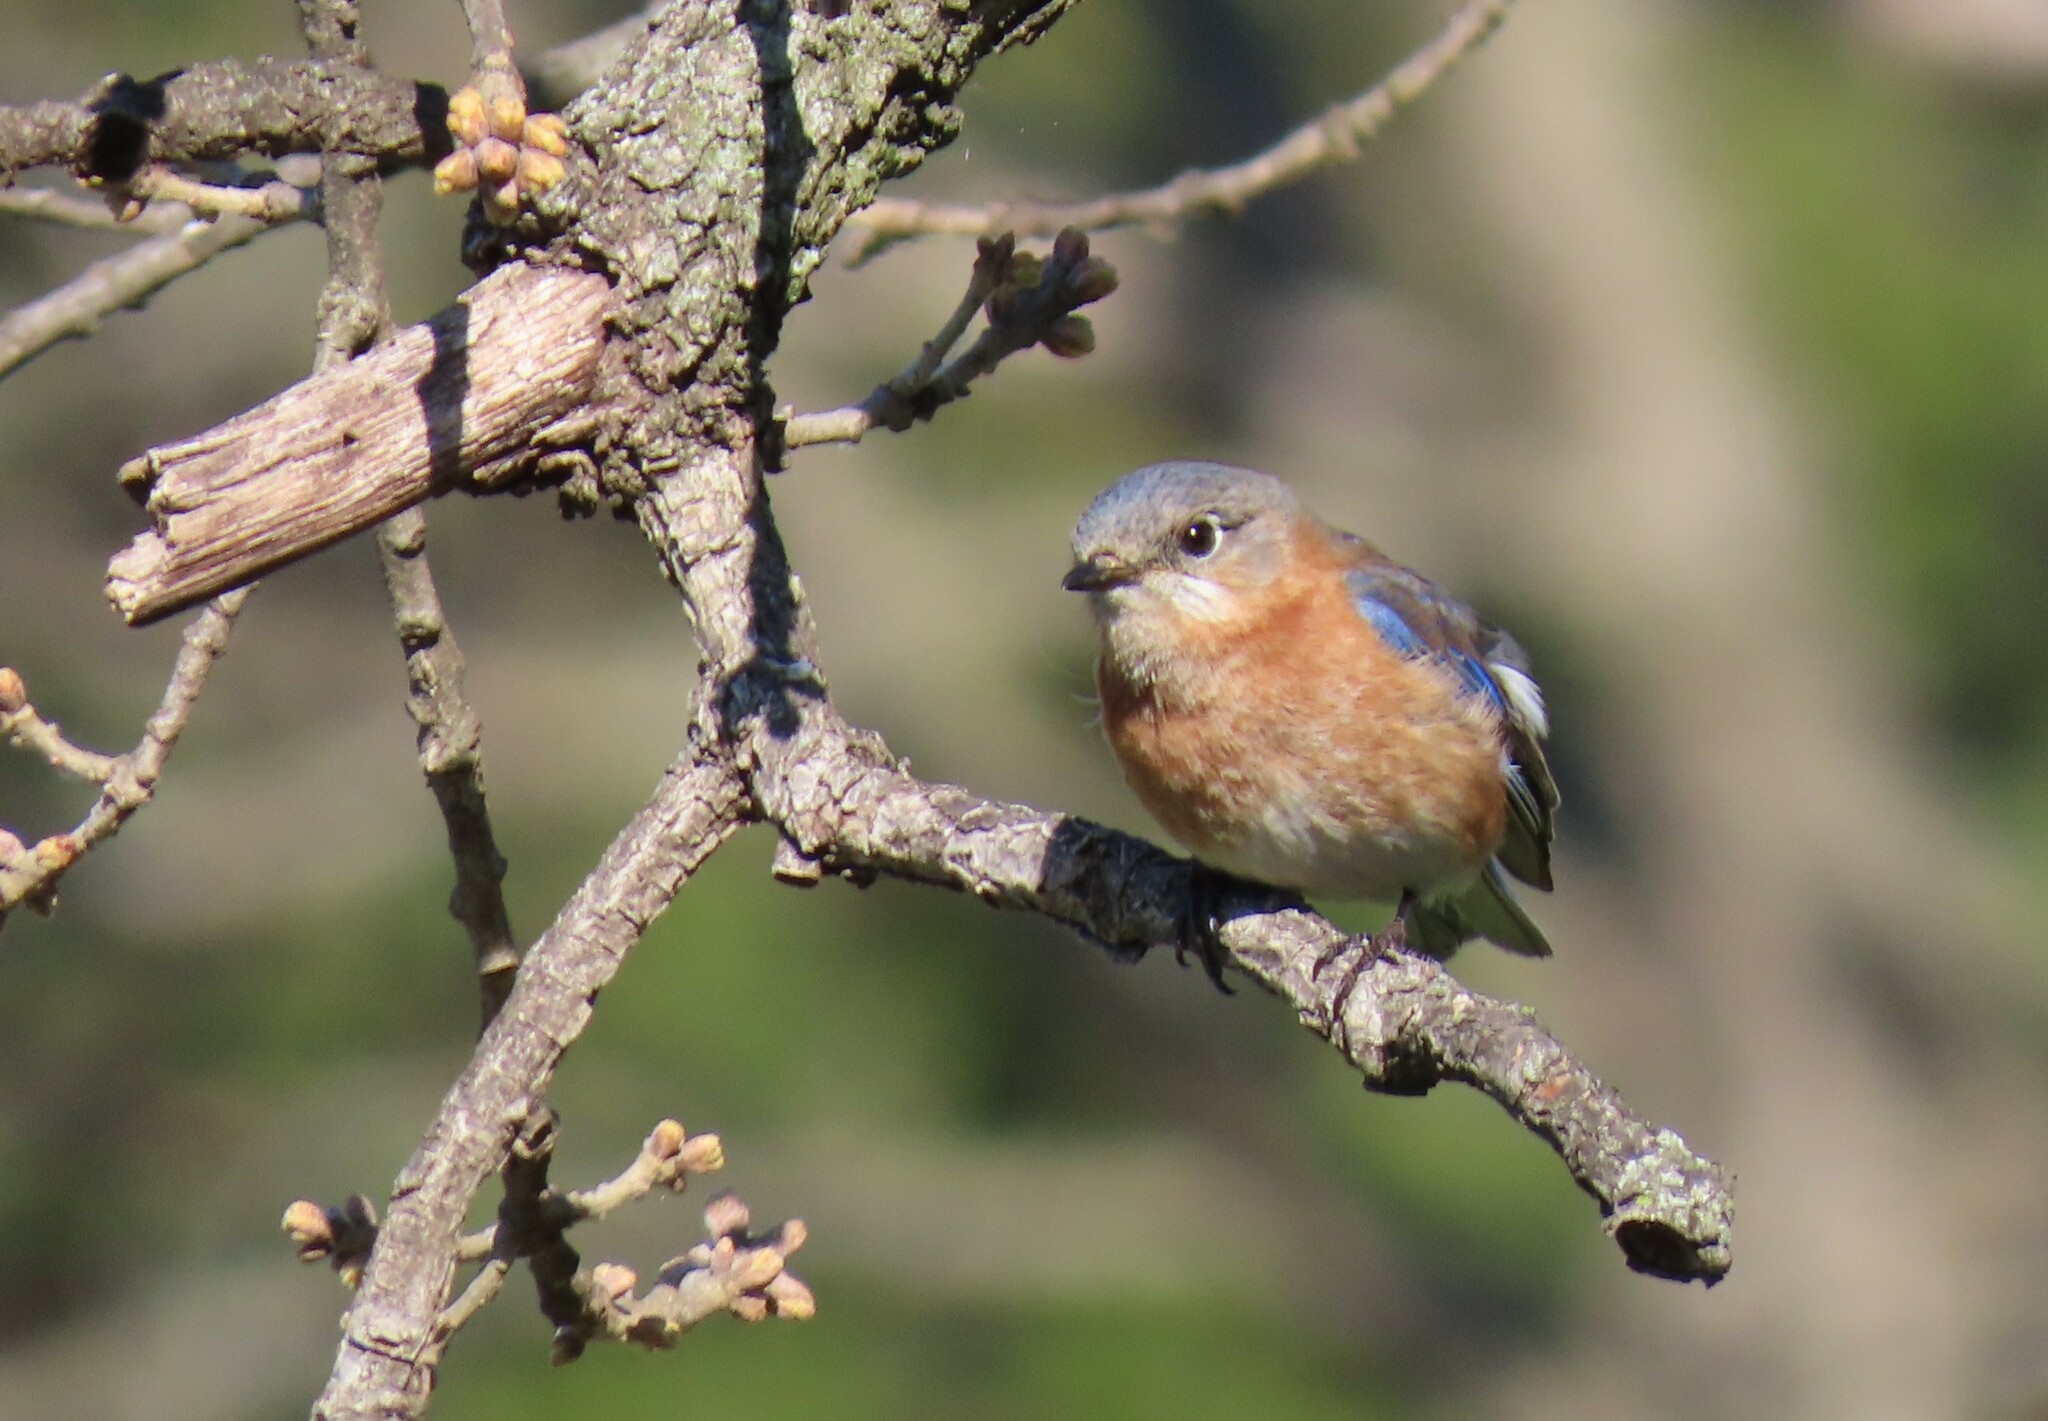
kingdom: Animalia
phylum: Chordata
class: Aves
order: Passeriformes
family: Turdidae
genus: Sialia
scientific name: Sialia sialis
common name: Eastern bluebird
